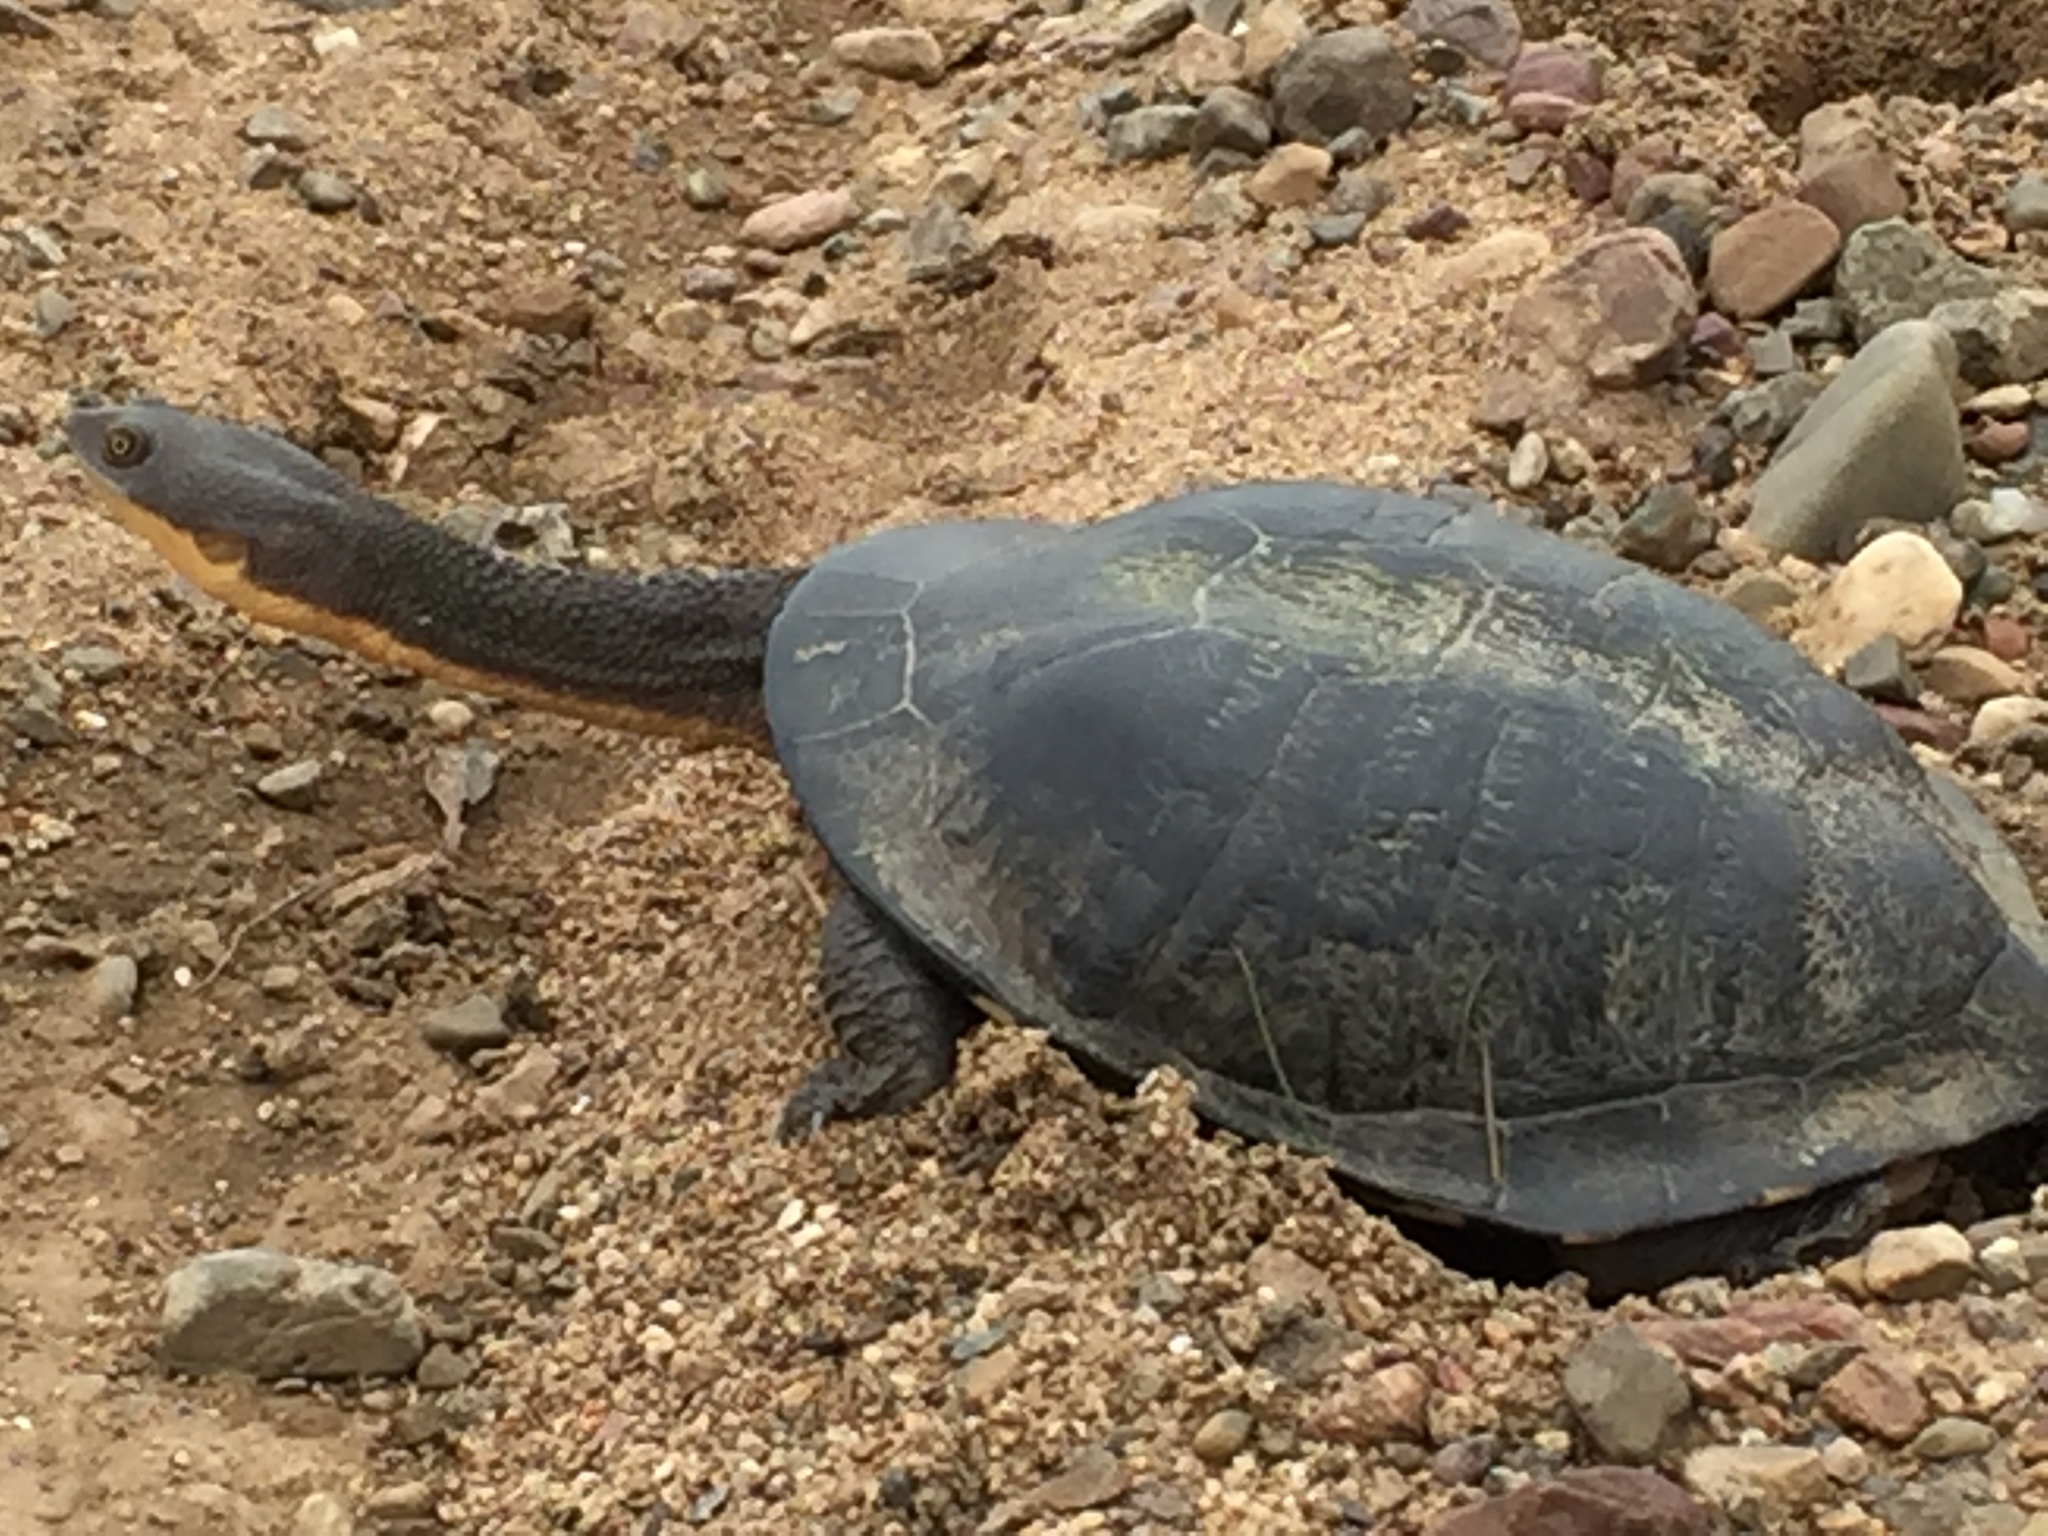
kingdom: Animalia
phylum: Chordata
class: Testudines
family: Chelidae
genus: Chelodina
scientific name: Chelodina longicollis
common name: Eastern snake-necked turtle
